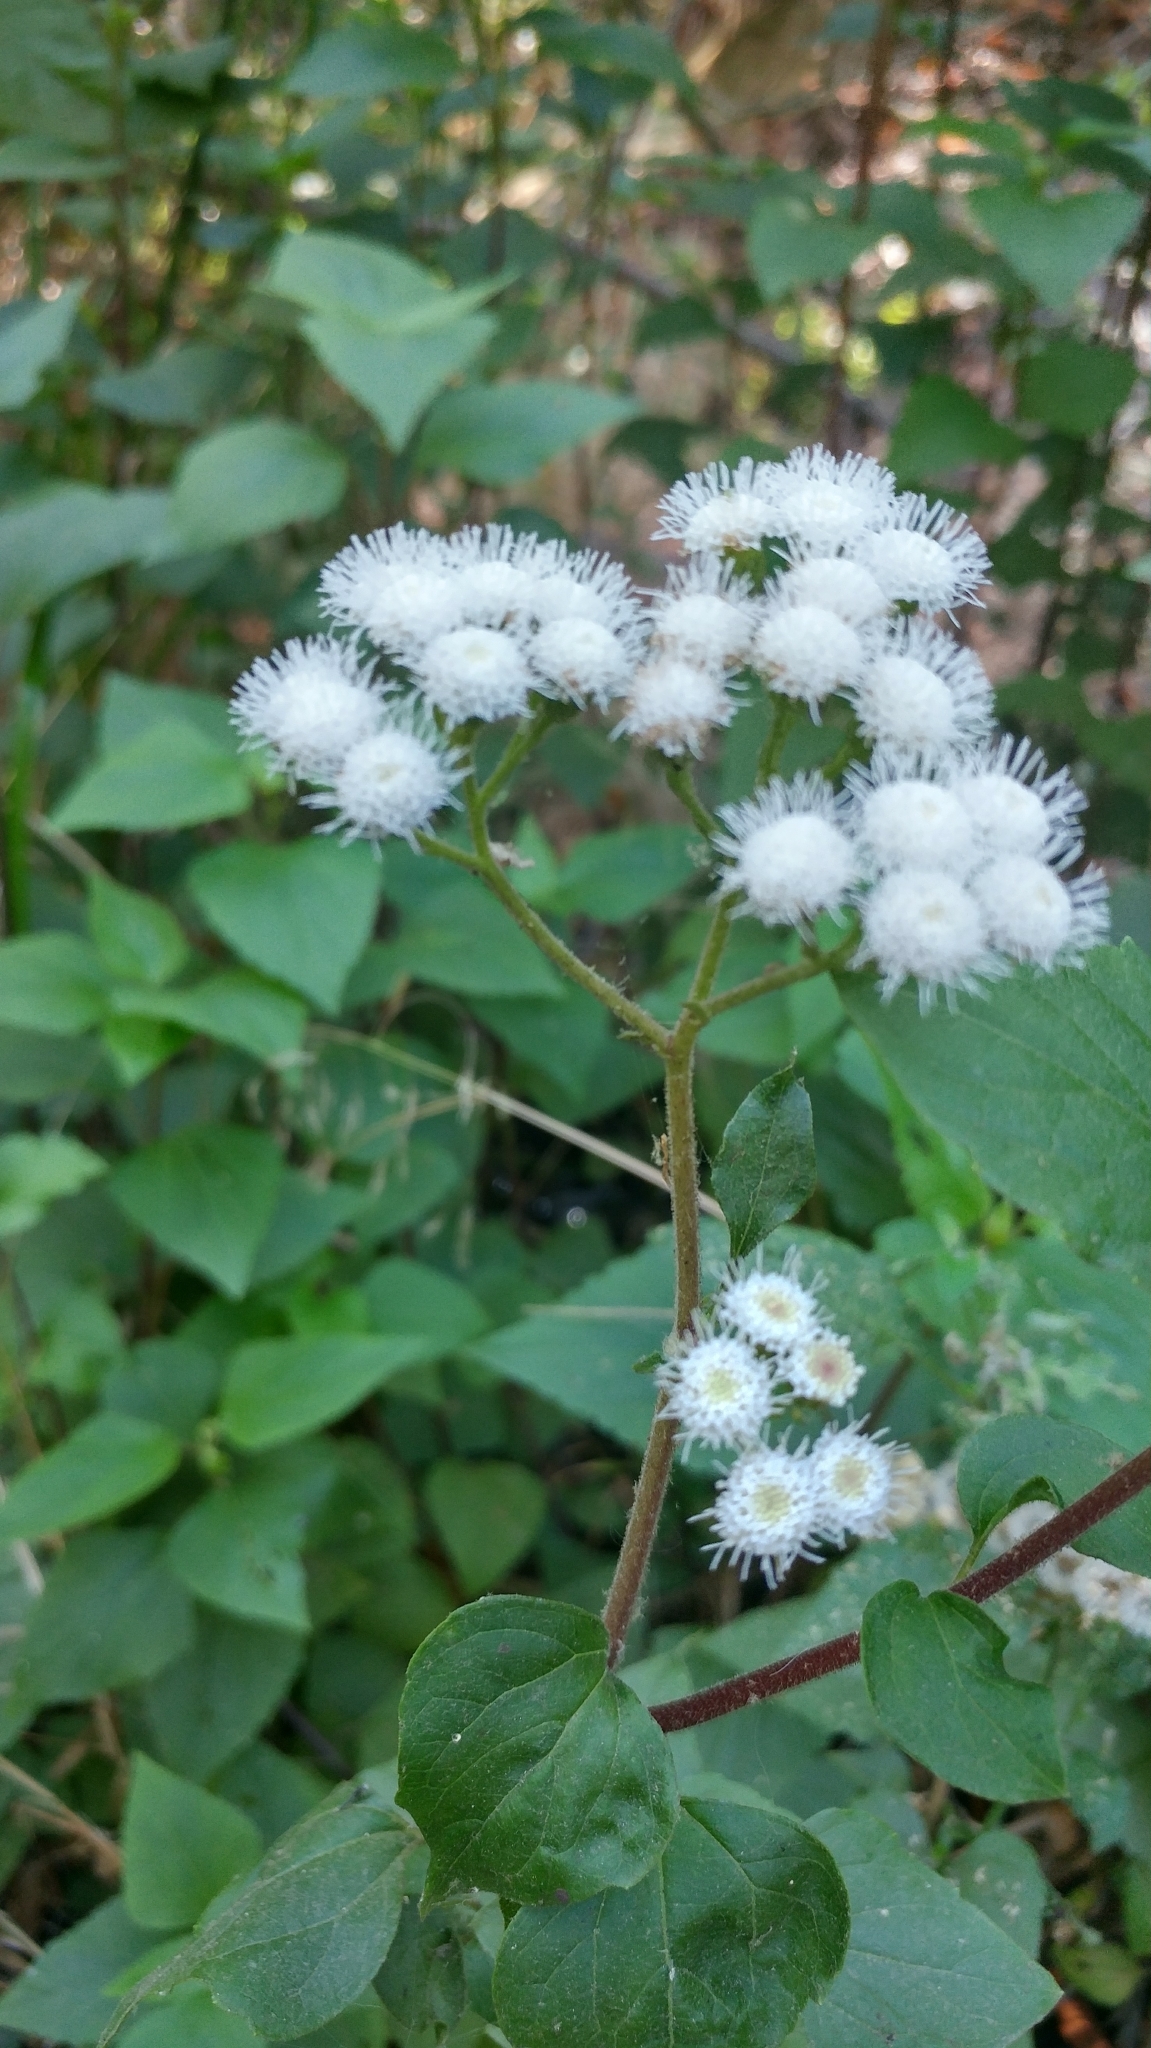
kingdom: Plantae
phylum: Tracheophyta
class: Magnoliopsida
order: Asterales
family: Asteraceae
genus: Ageratina
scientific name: Ageratina adenophora
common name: Sticky snakeroot
